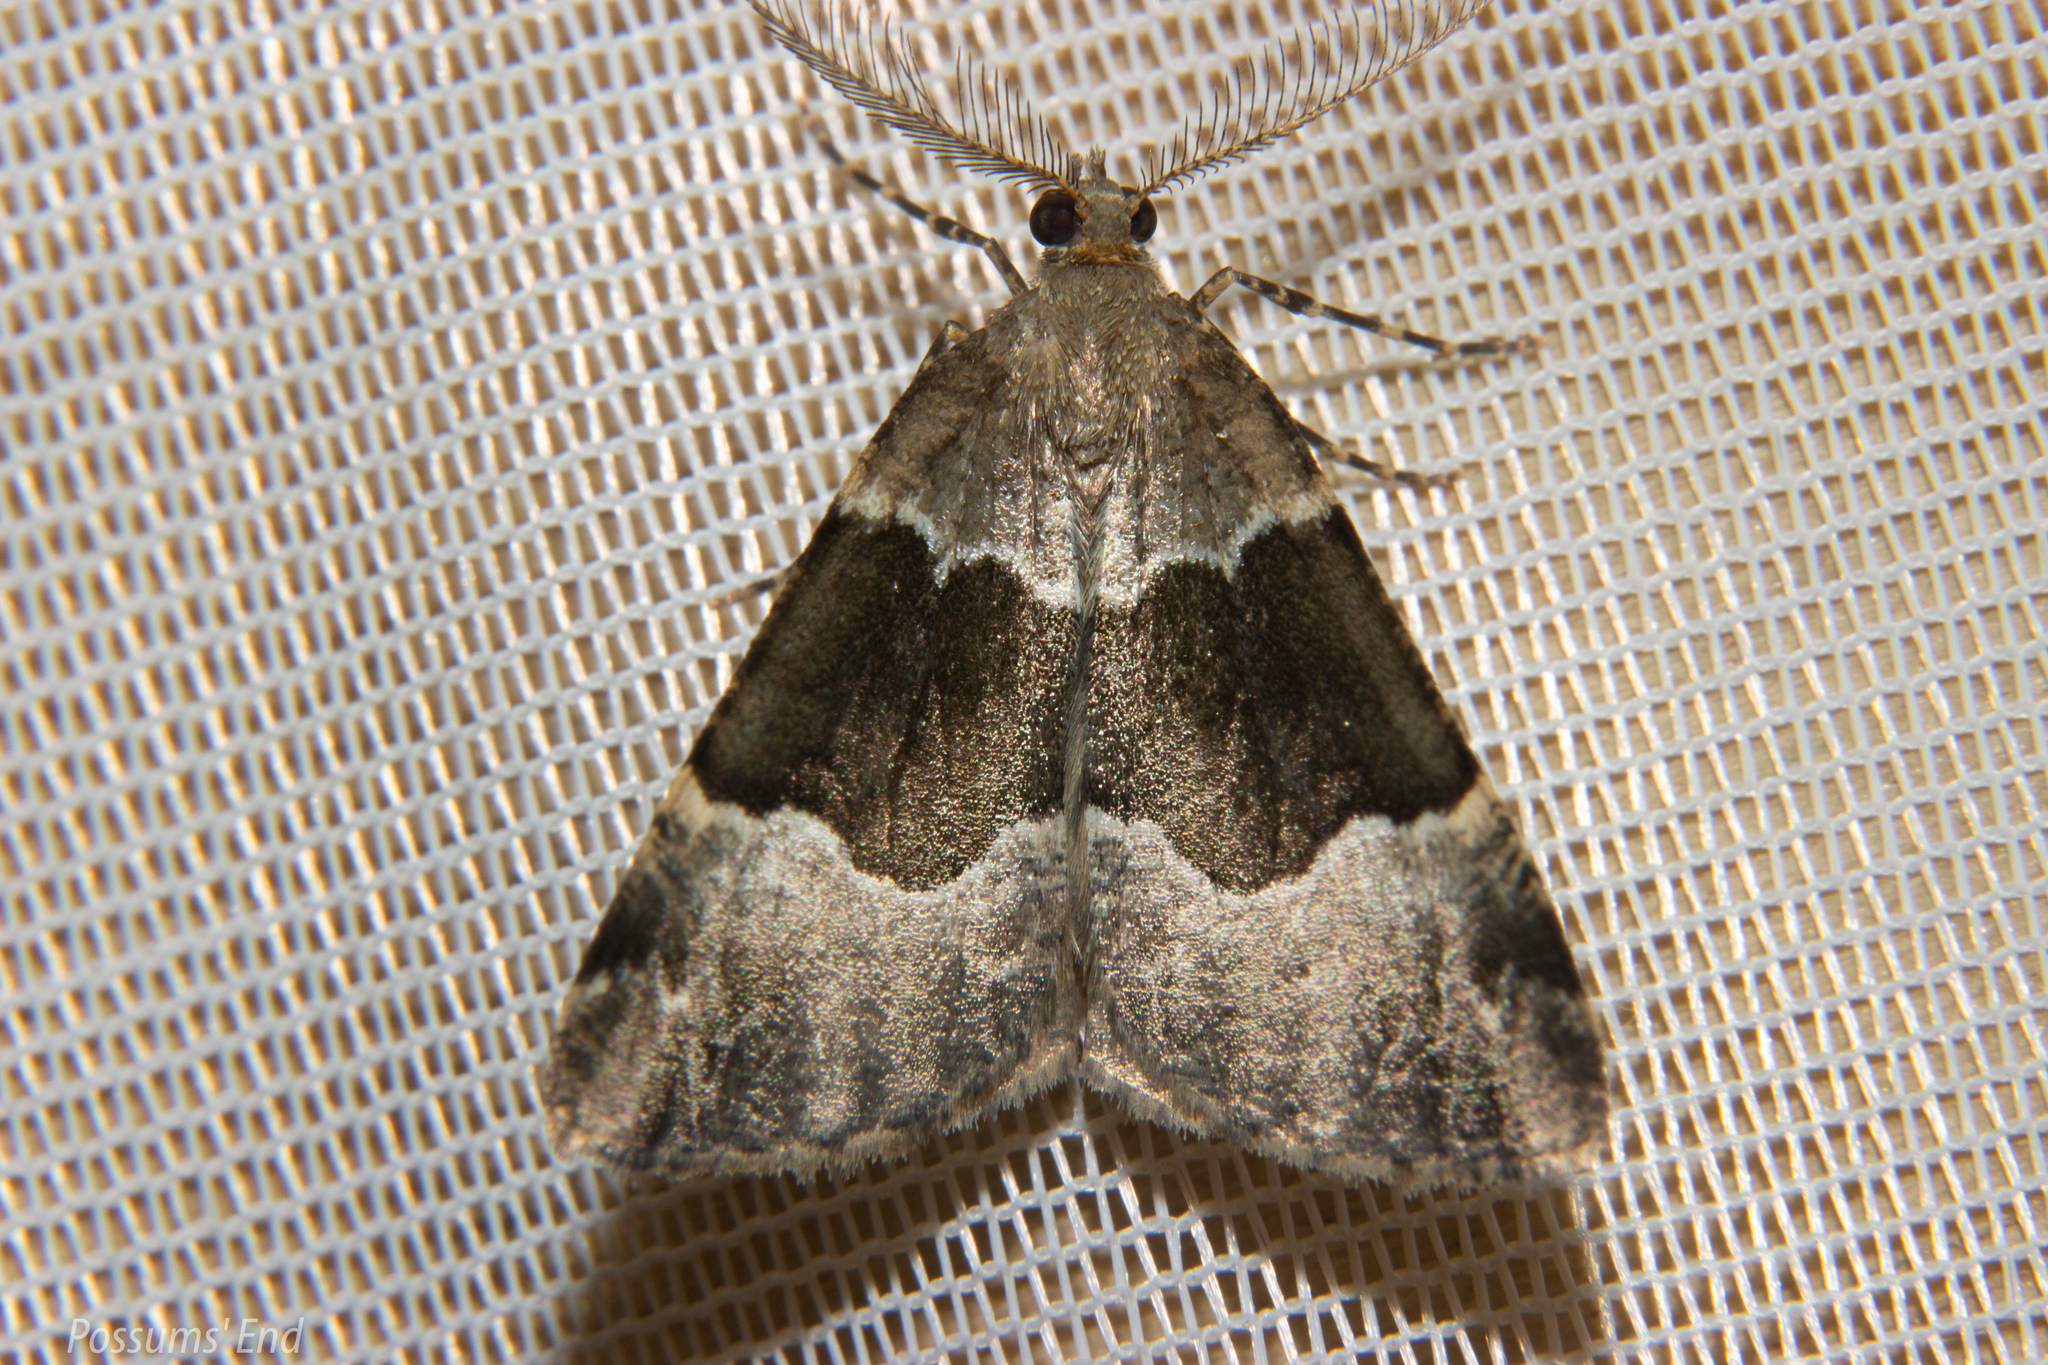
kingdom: Animalia
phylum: Arthropoda
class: Insecta
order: Lepidoptera
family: Geometridae
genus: Pseudocoremia
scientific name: Pseudocoremia
